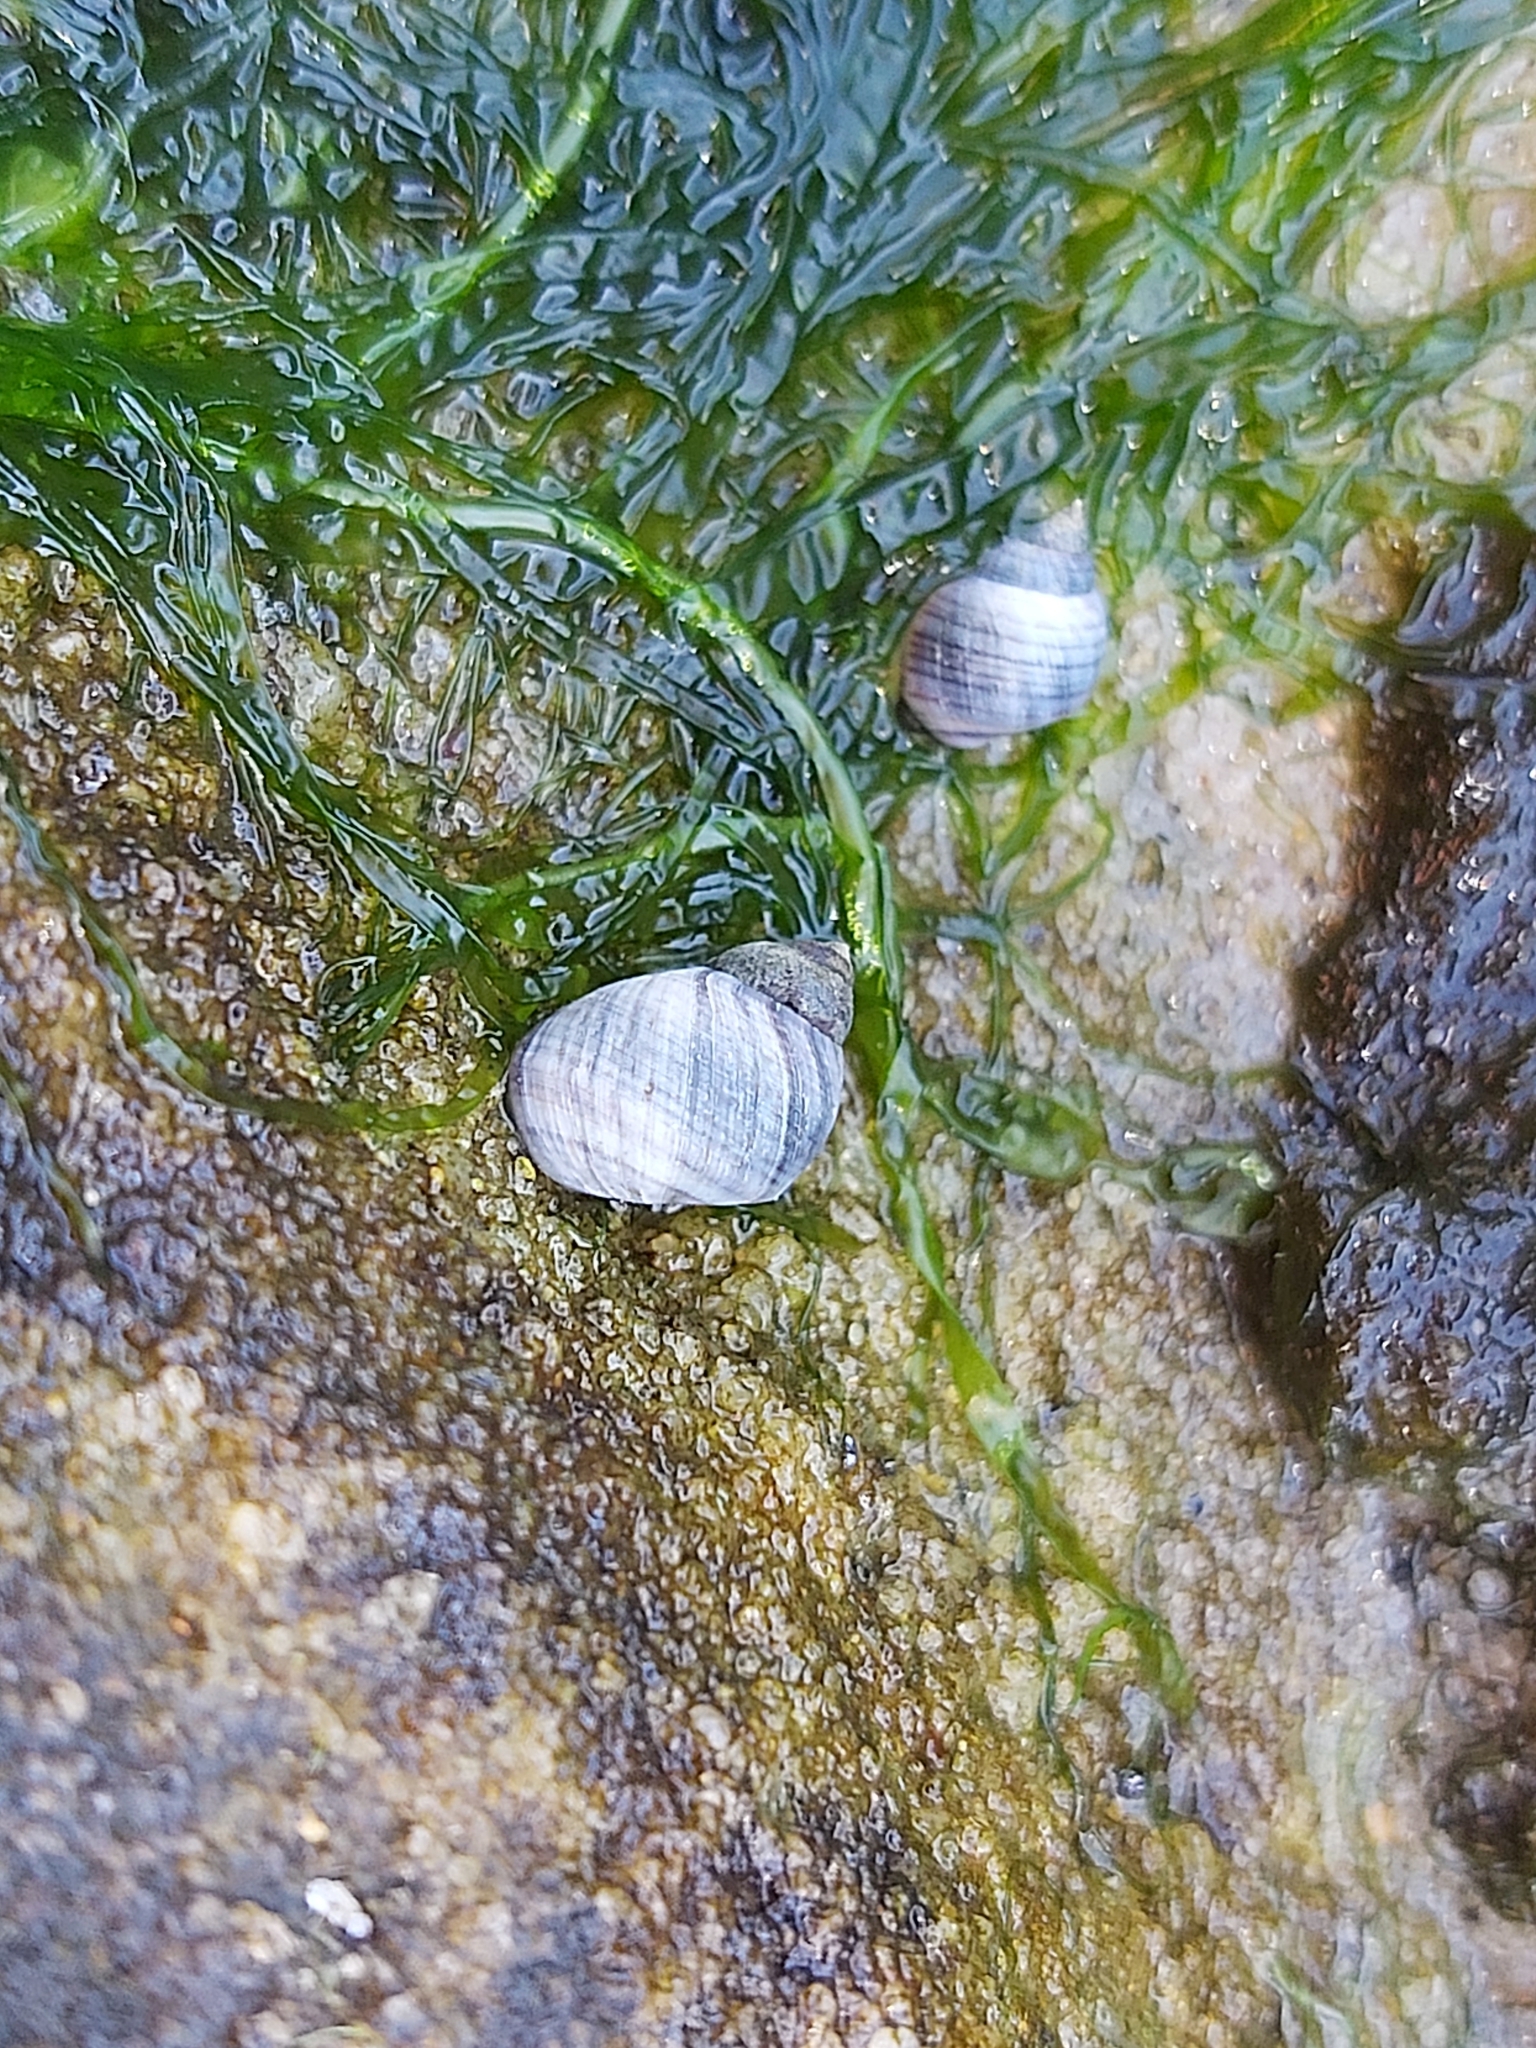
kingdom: Animalia
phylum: Mollusca
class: Gastropoda
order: Littorinimorpha
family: Littorinidae
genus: Austrolittorina
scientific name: Austrolittorina unifasciata
